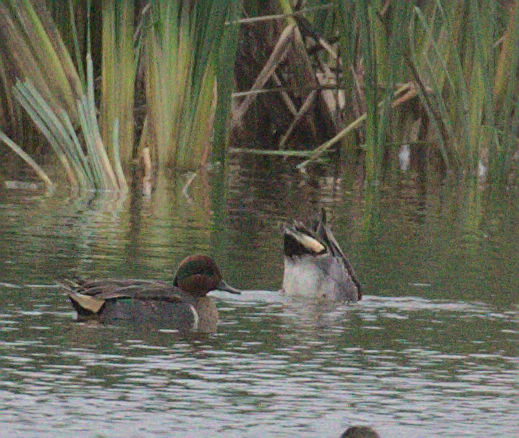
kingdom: Animalia
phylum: Chordata
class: Aves
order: Anseriformes
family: Anatidae
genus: Anas
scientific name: Anas crecca
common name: Eurasian teal
